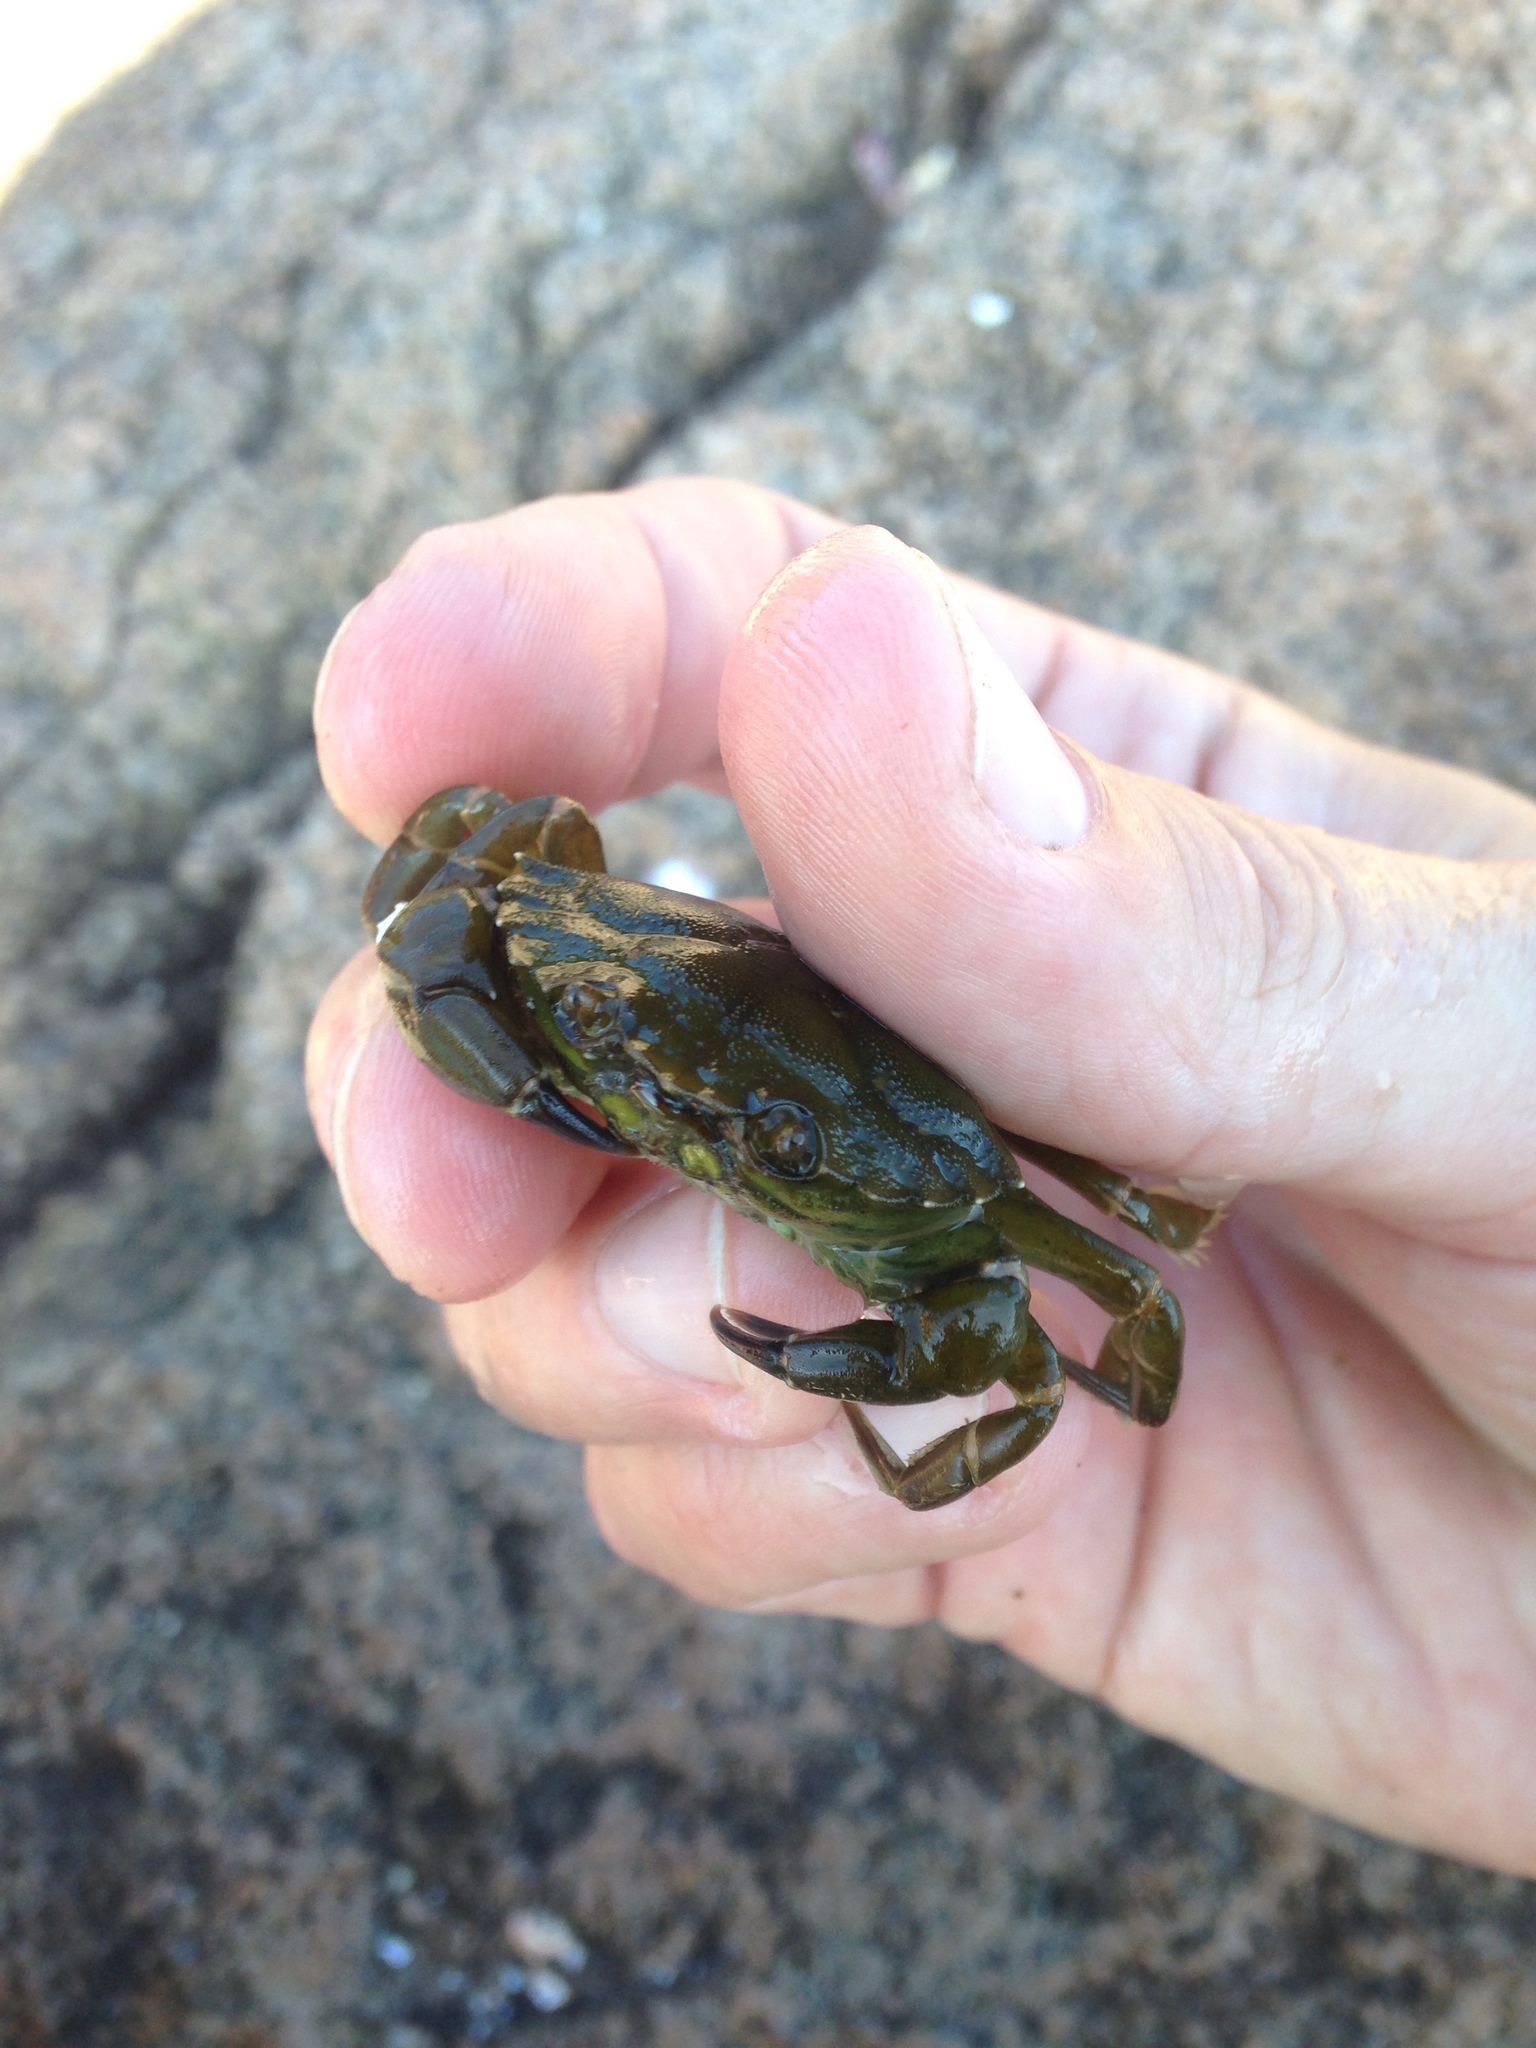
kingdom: Animalia
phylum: Arthropoda
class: Malacostraca
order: Decapoda
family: Carcinidae
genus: Carcinus
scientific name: Carcinus maenas
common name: European green crab
